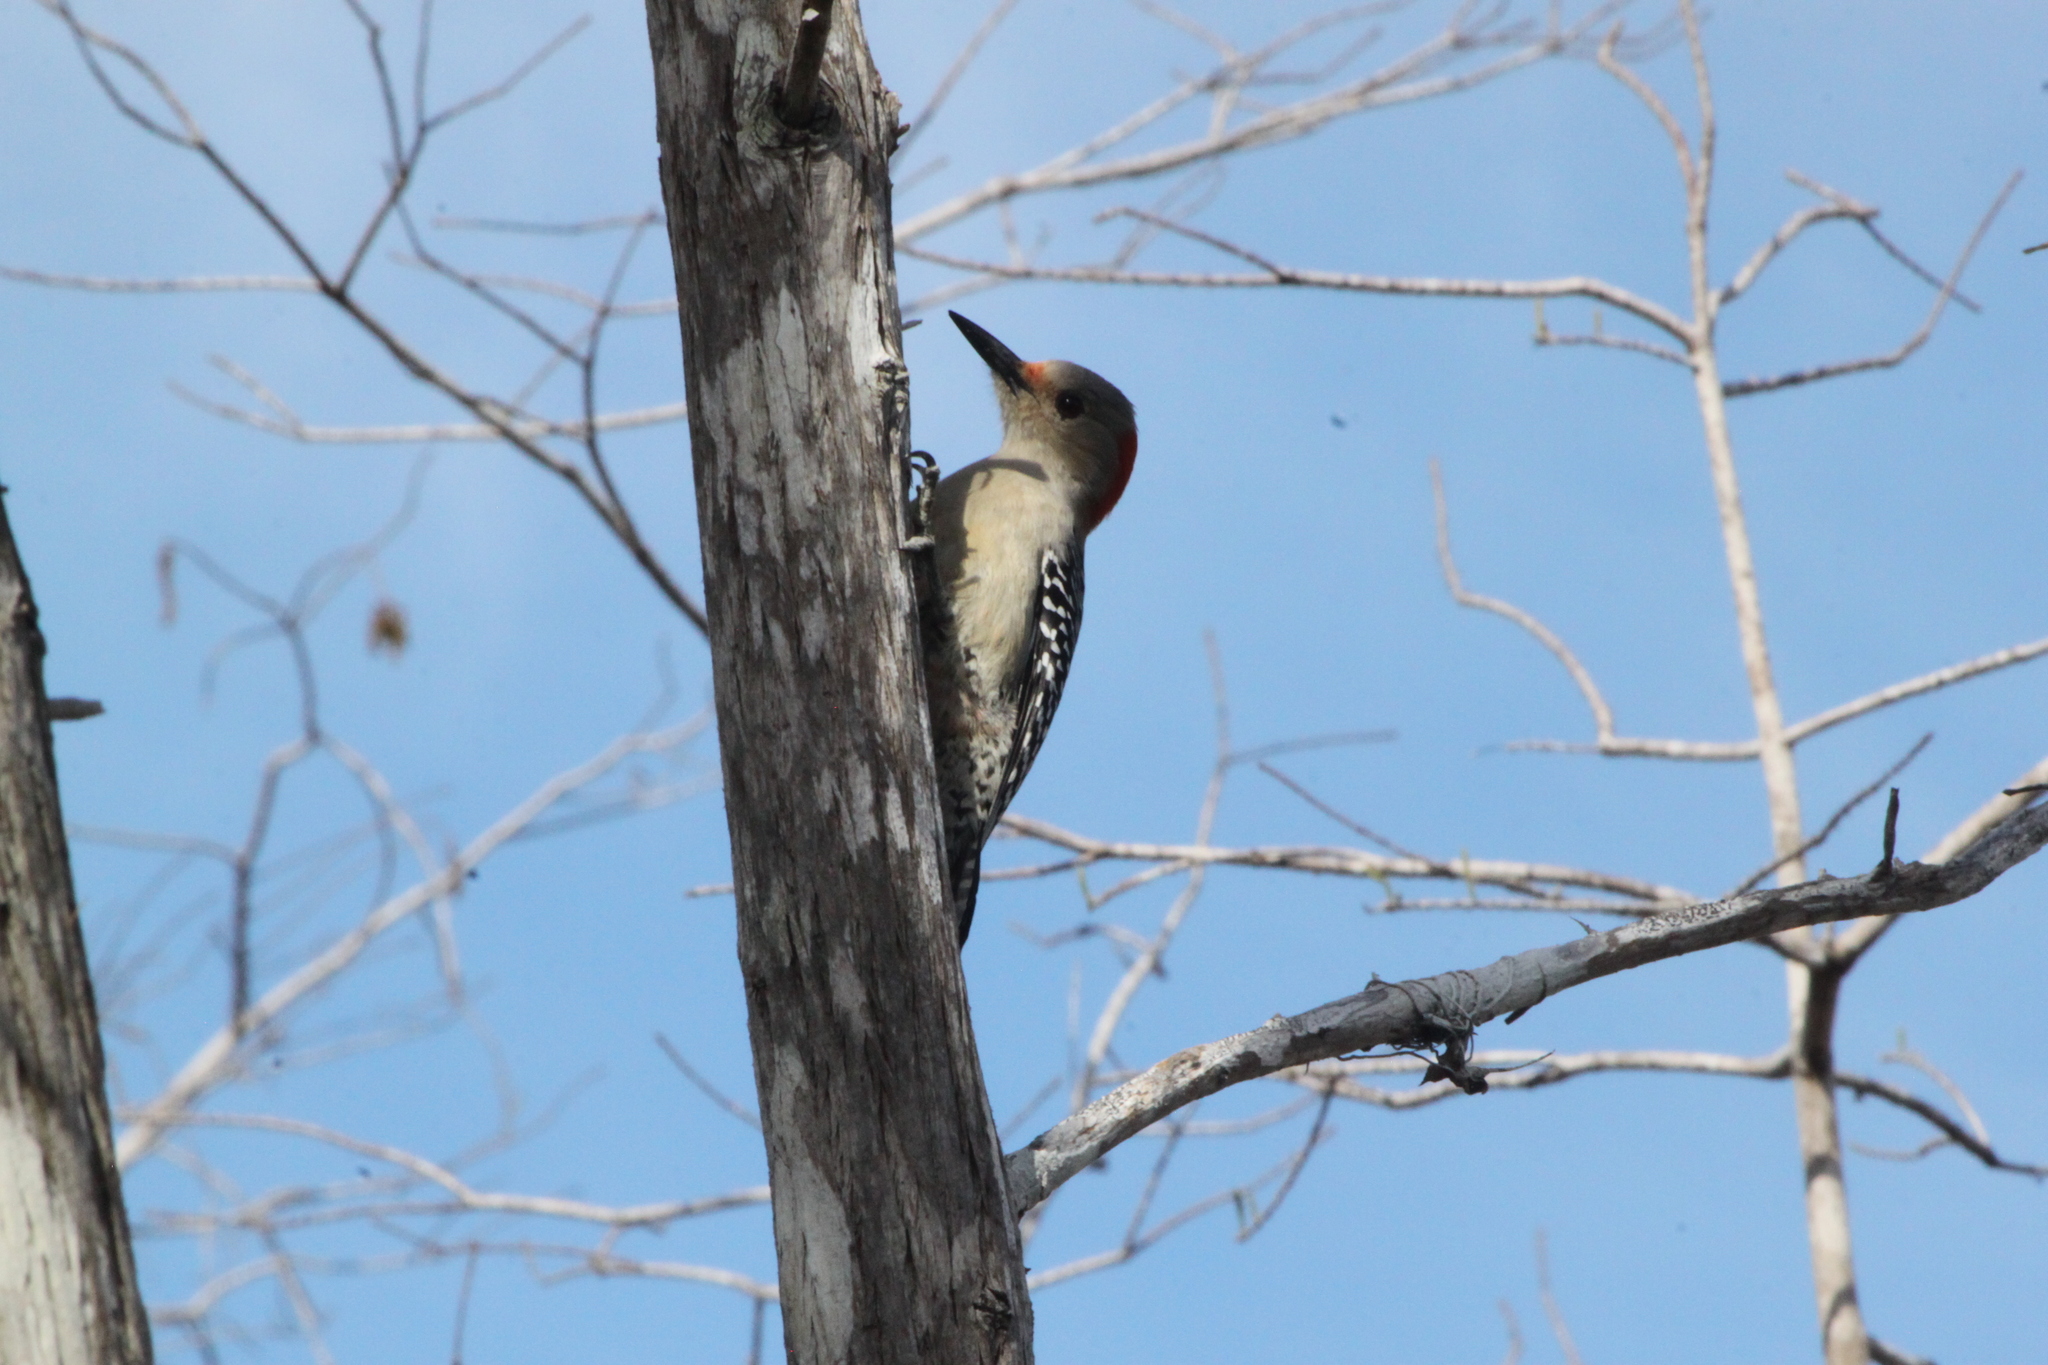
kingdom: Animalia
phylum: Chordata
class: Aves
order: Piciformes
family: Picidae
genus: Melanerpes
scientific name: Melanerpes carolinus
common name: Red-bellied woodpecker
